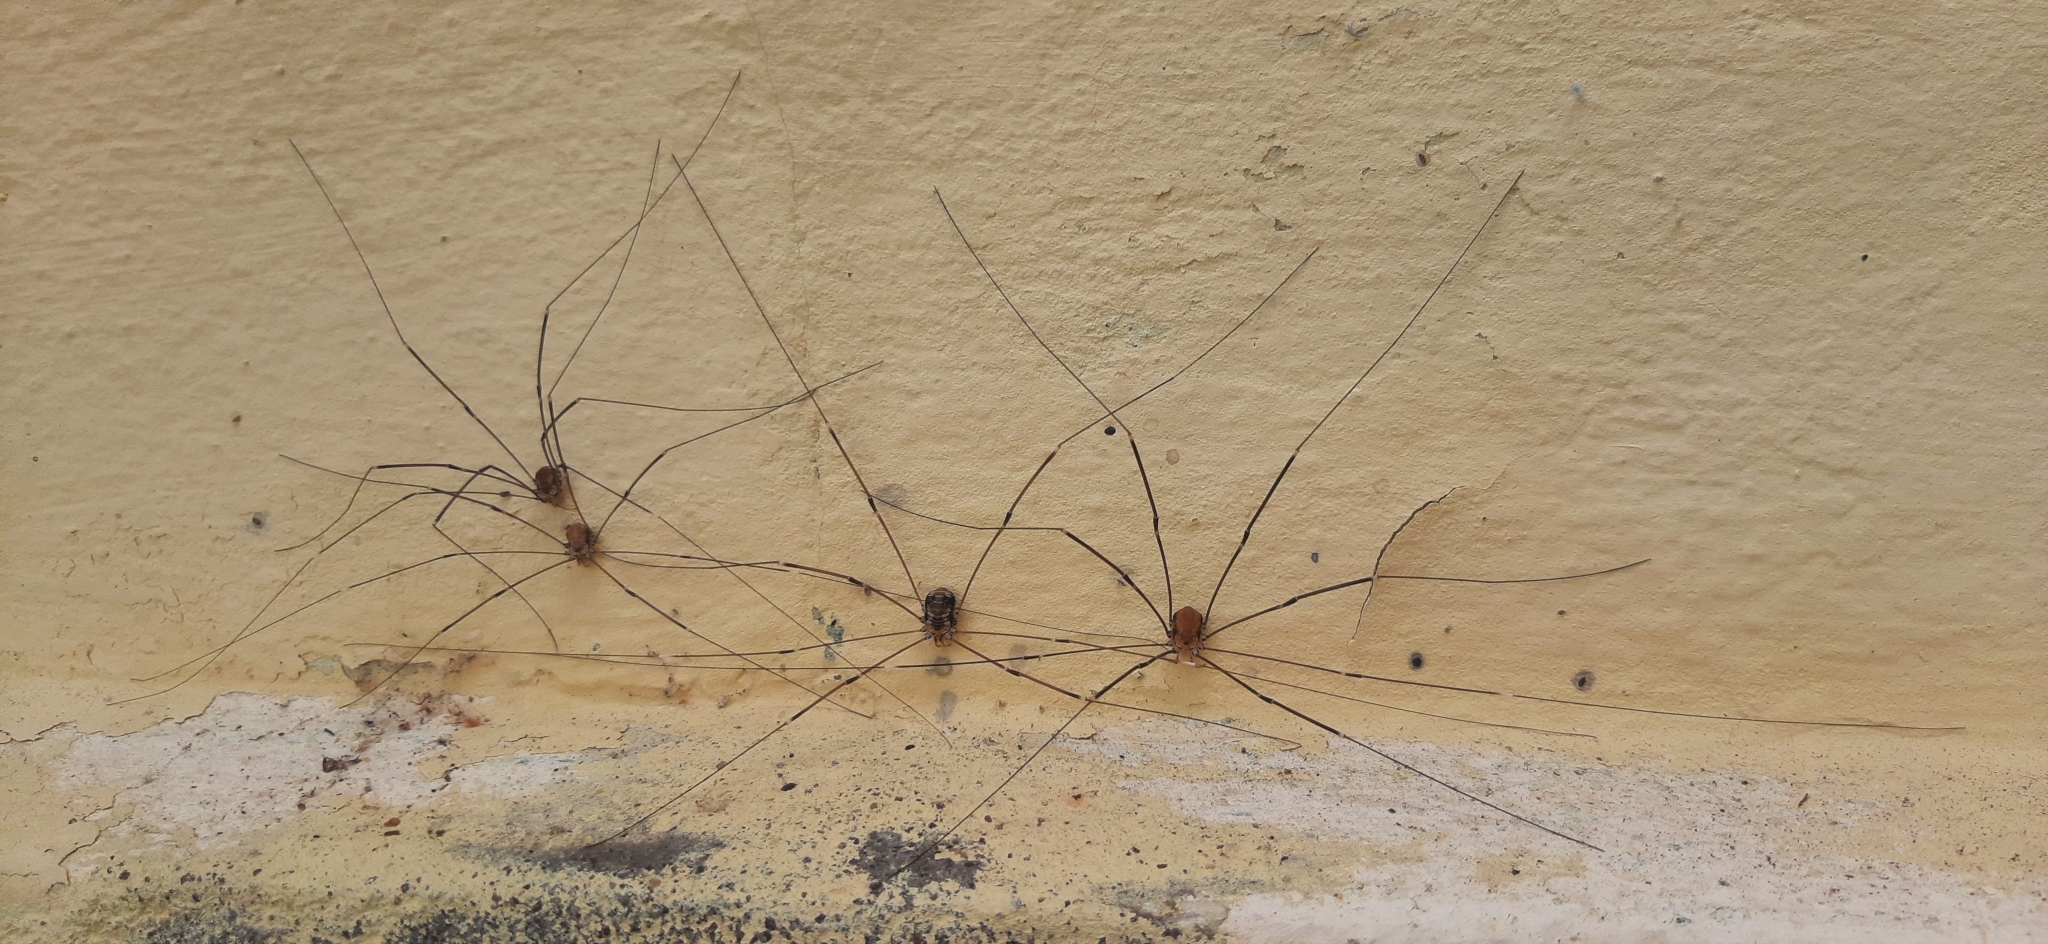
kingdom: Animalia
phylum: Arthropoda
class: Arachnida
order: Opiliones
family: Sclerosomatidae
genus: Leiobunum
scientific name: Leiobunum limbatum
